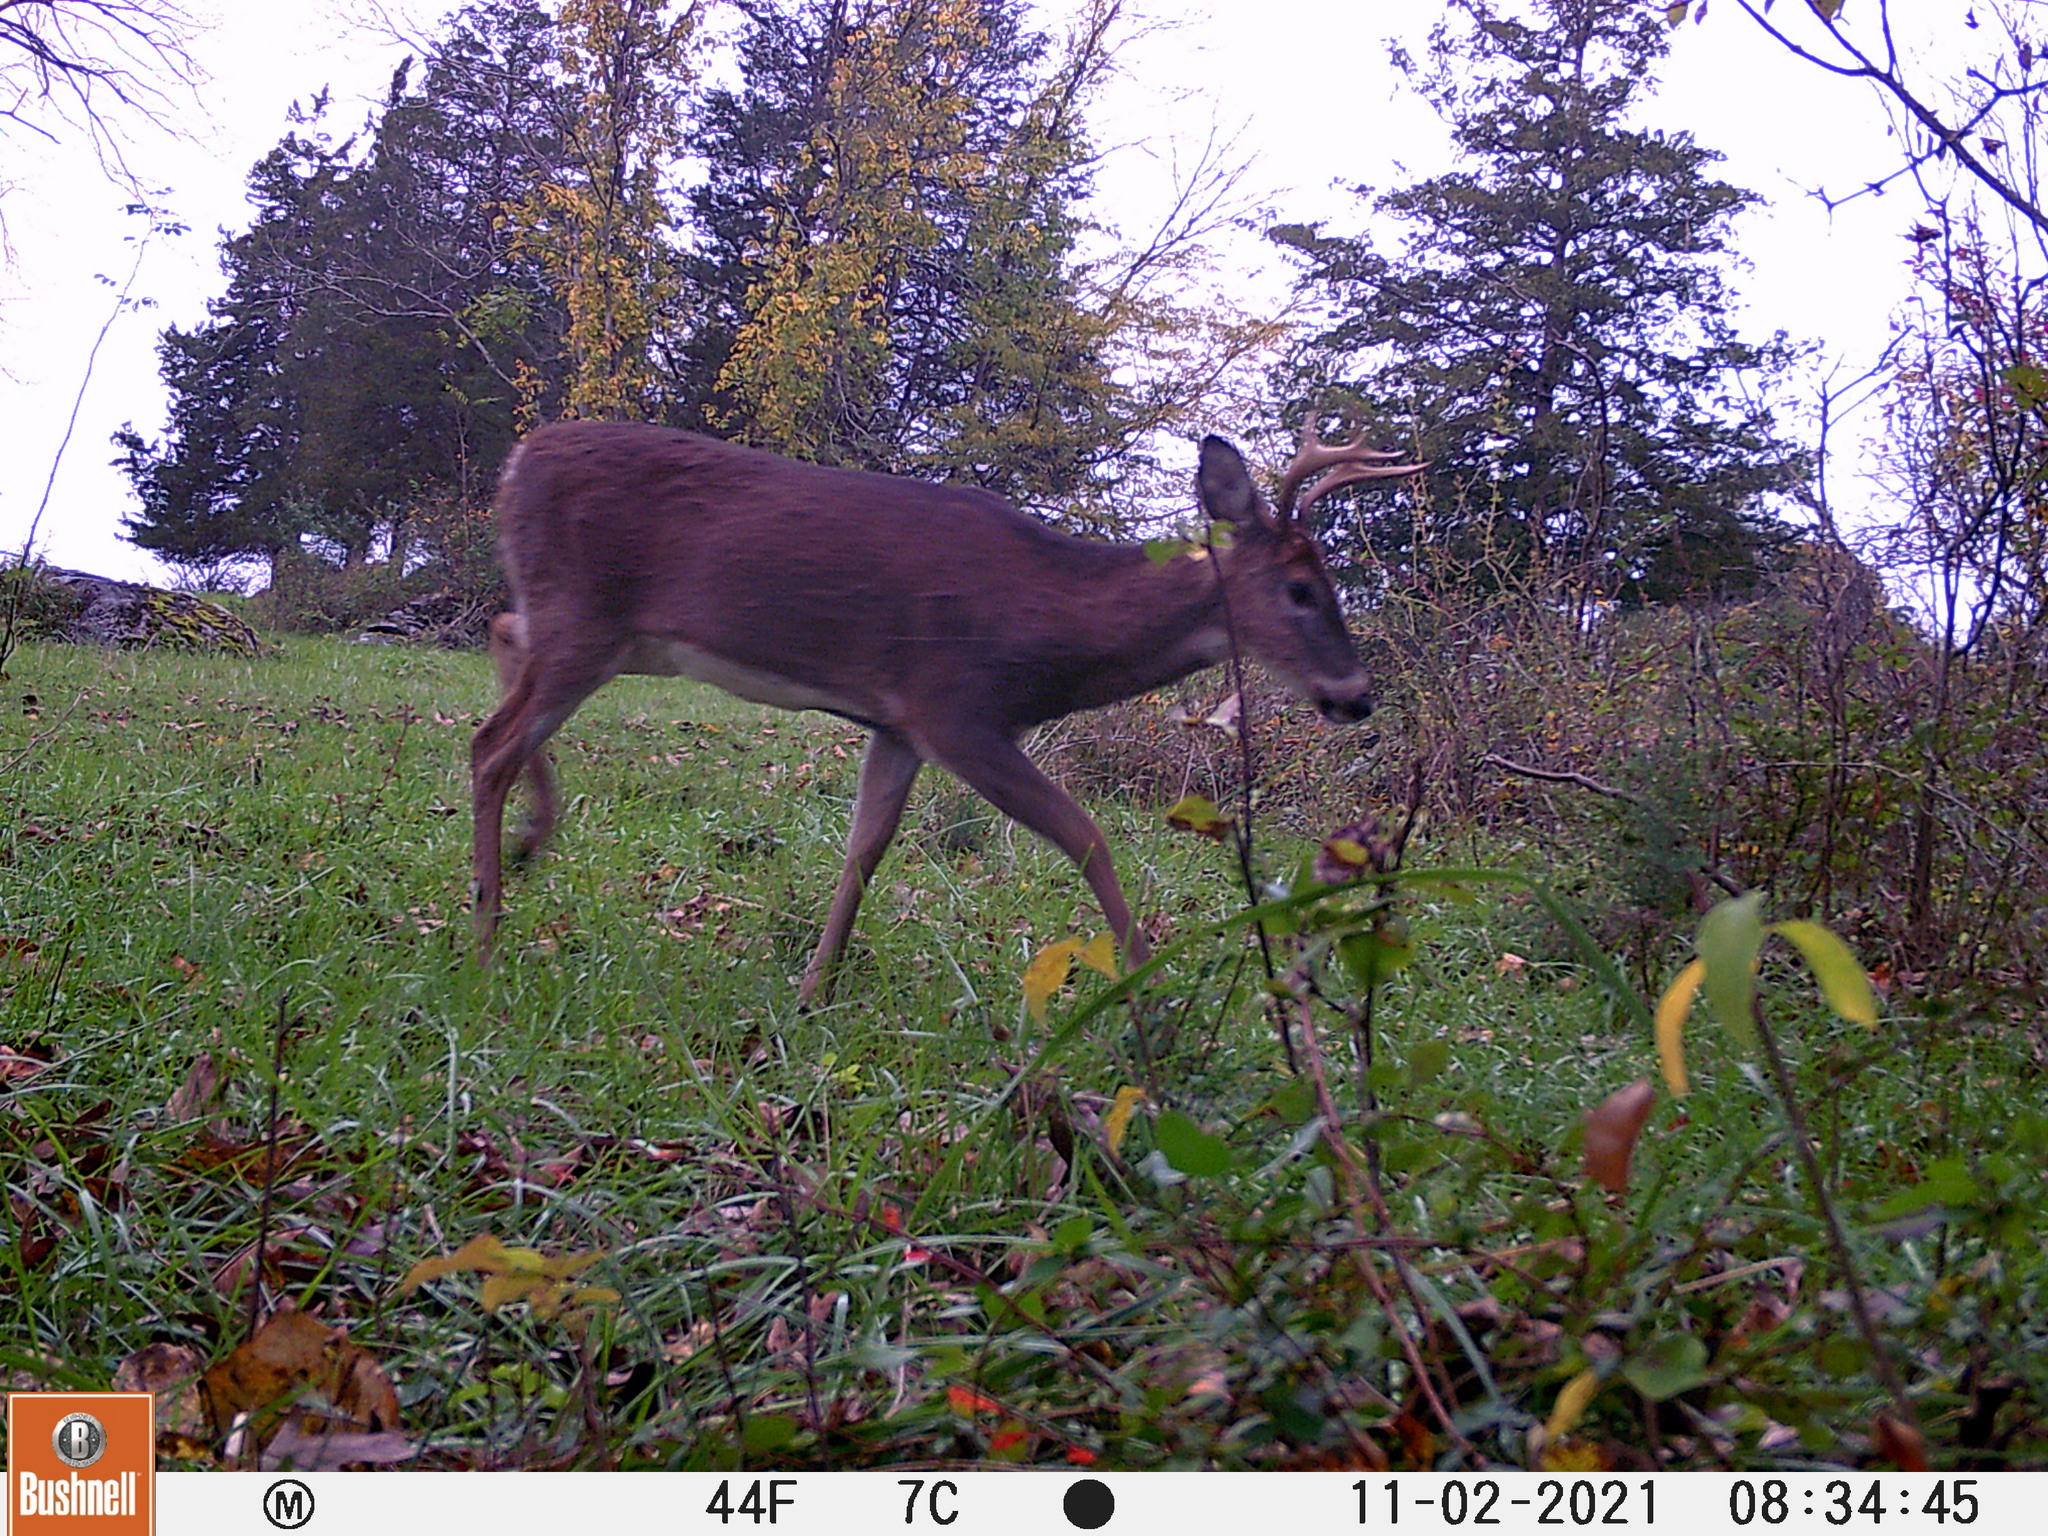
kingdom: Animalia
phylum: Chordata
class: Mammalia
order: Artiodactyla
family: Cervidae
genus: Odocoileus
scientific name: Odocoileus virginianus
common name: White-tailed deer
